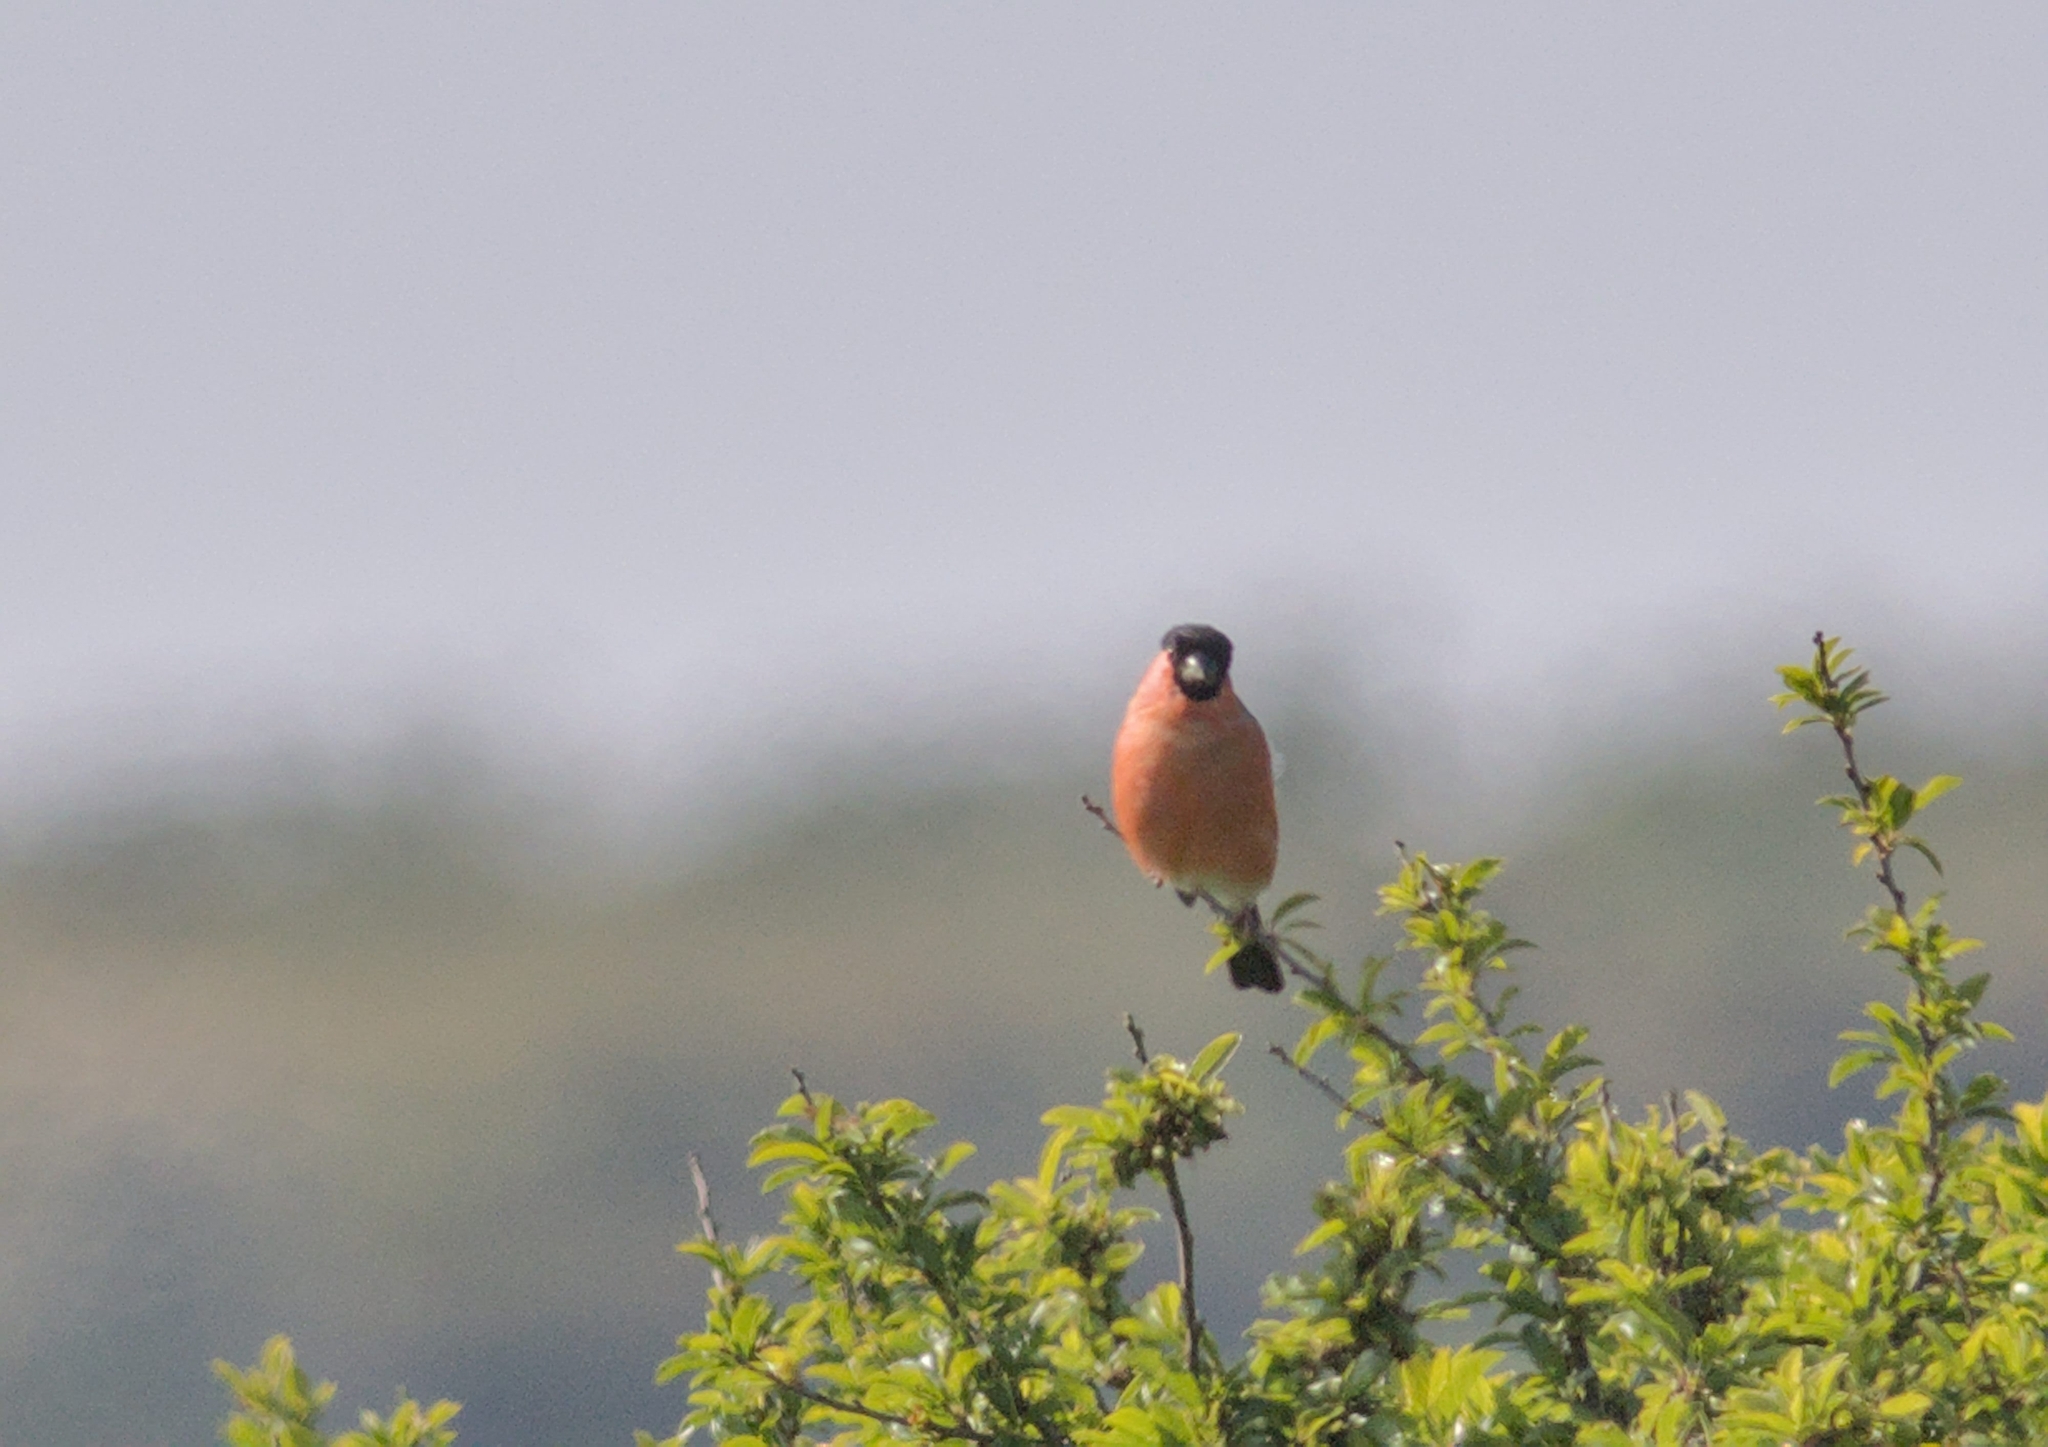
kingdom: Animalia
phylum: Chordata
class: Aves
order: Passeriformes
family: Fringillidae
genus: Pyrrhula
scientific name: Pyrrhula pyrrhula
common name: Eurasian bullfinch
